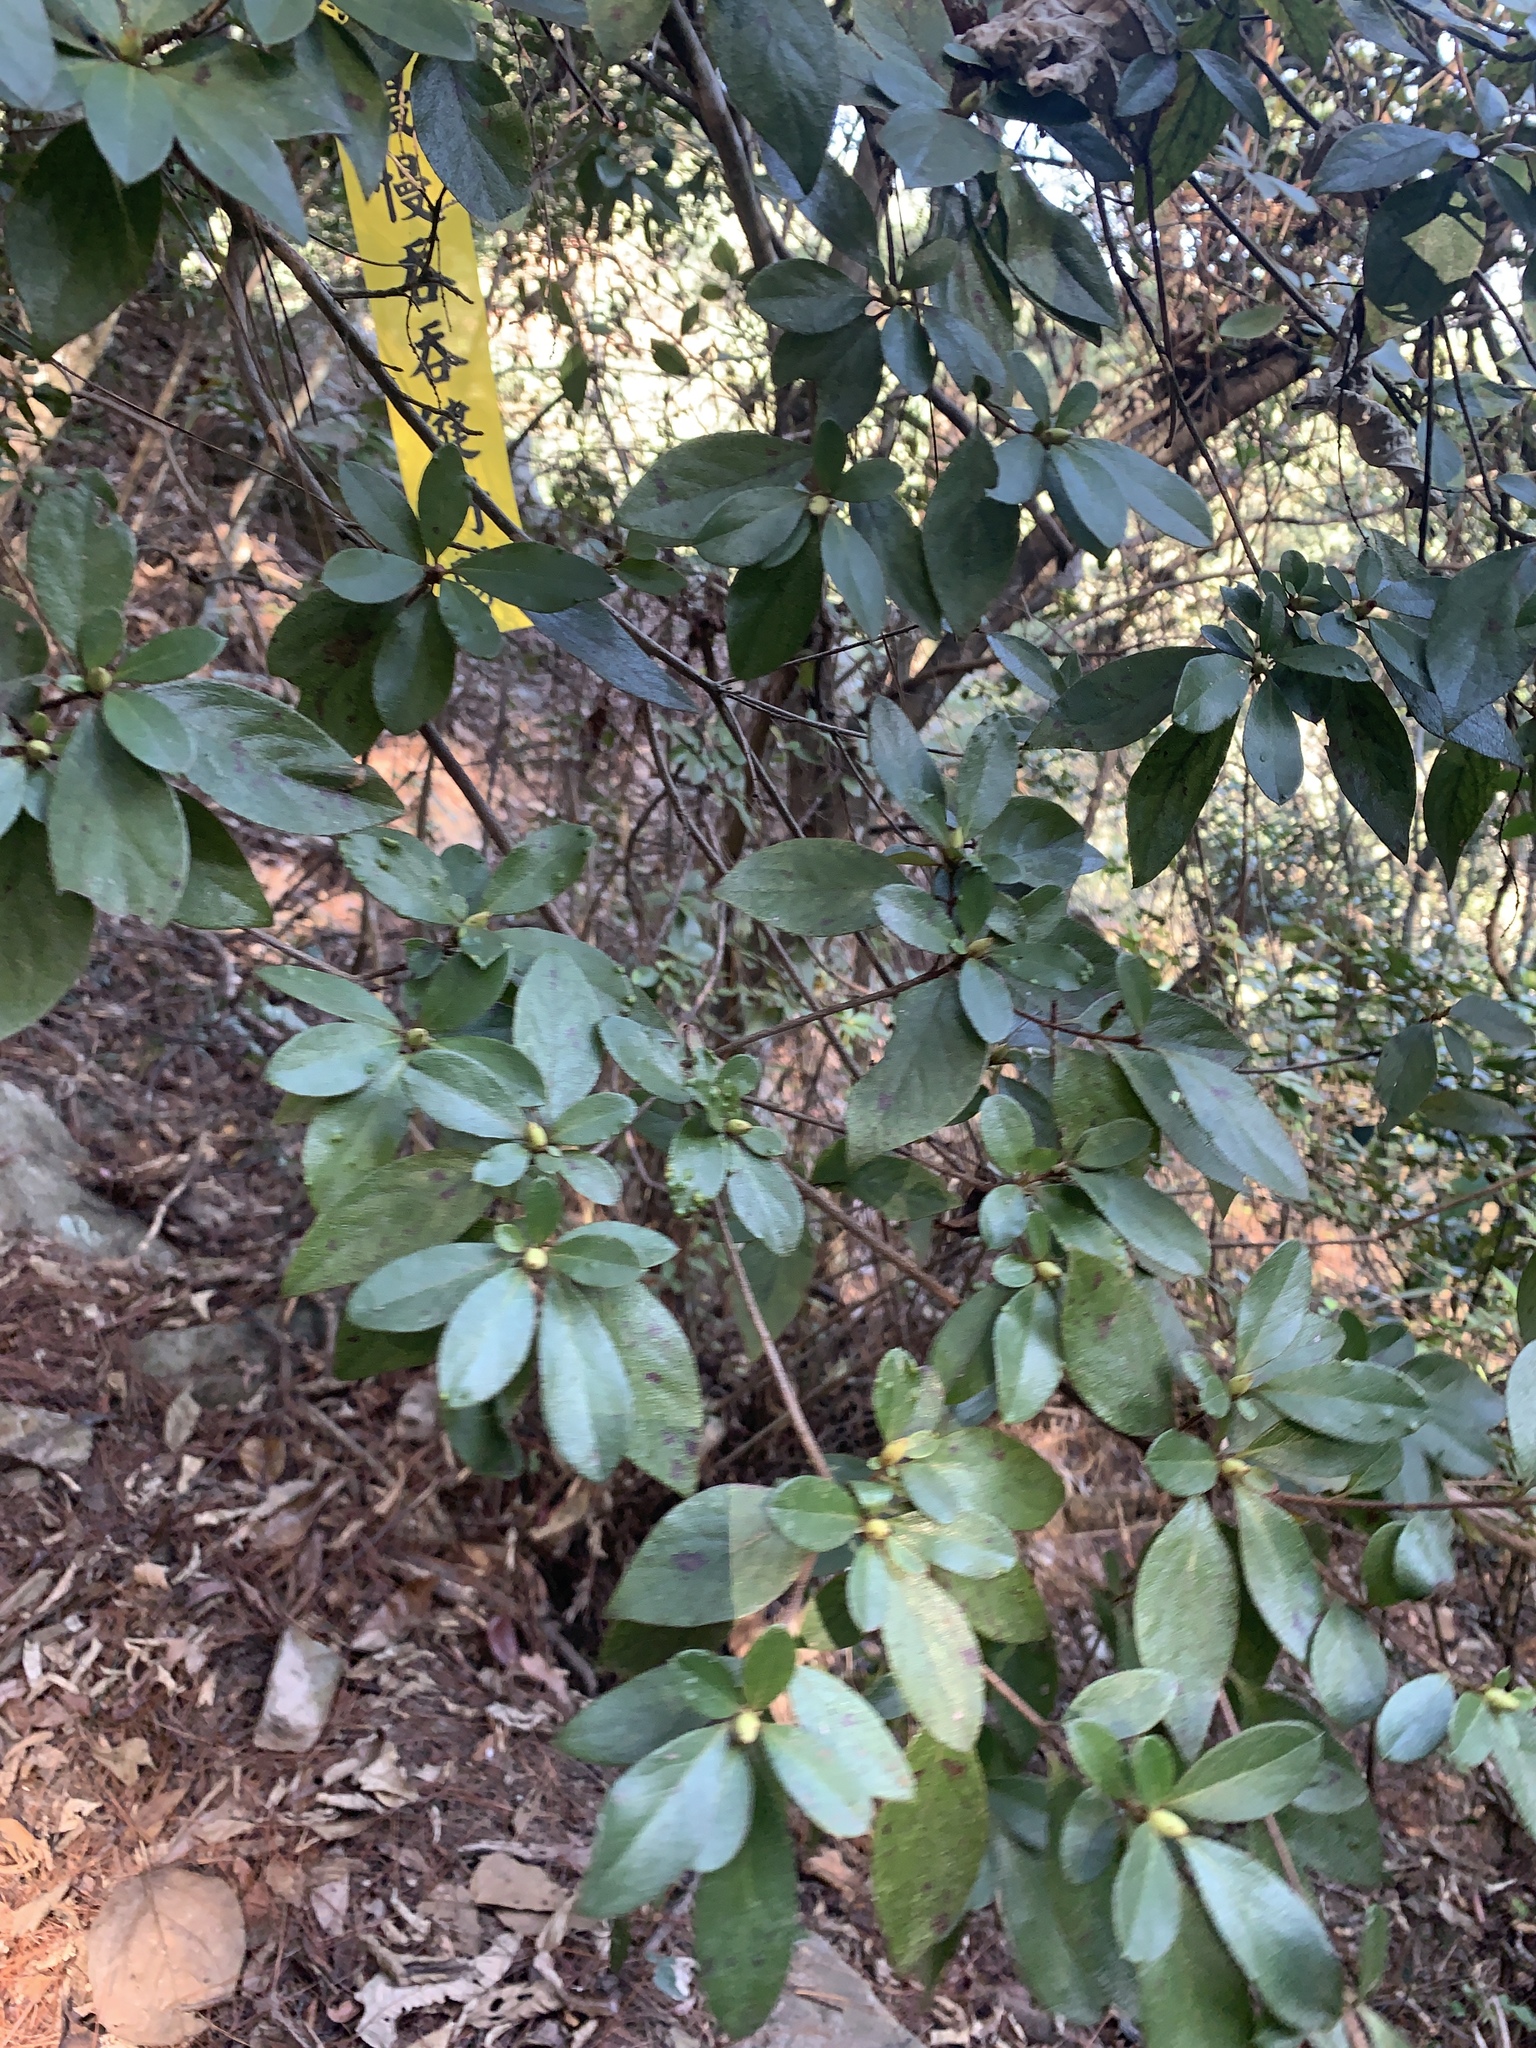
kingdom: Plantae
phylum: Tracheophyta
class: Magnoliopsida
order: Ericales
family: Ericaceae
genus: Rhododendron
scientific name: Rhododendron breviperulatum
